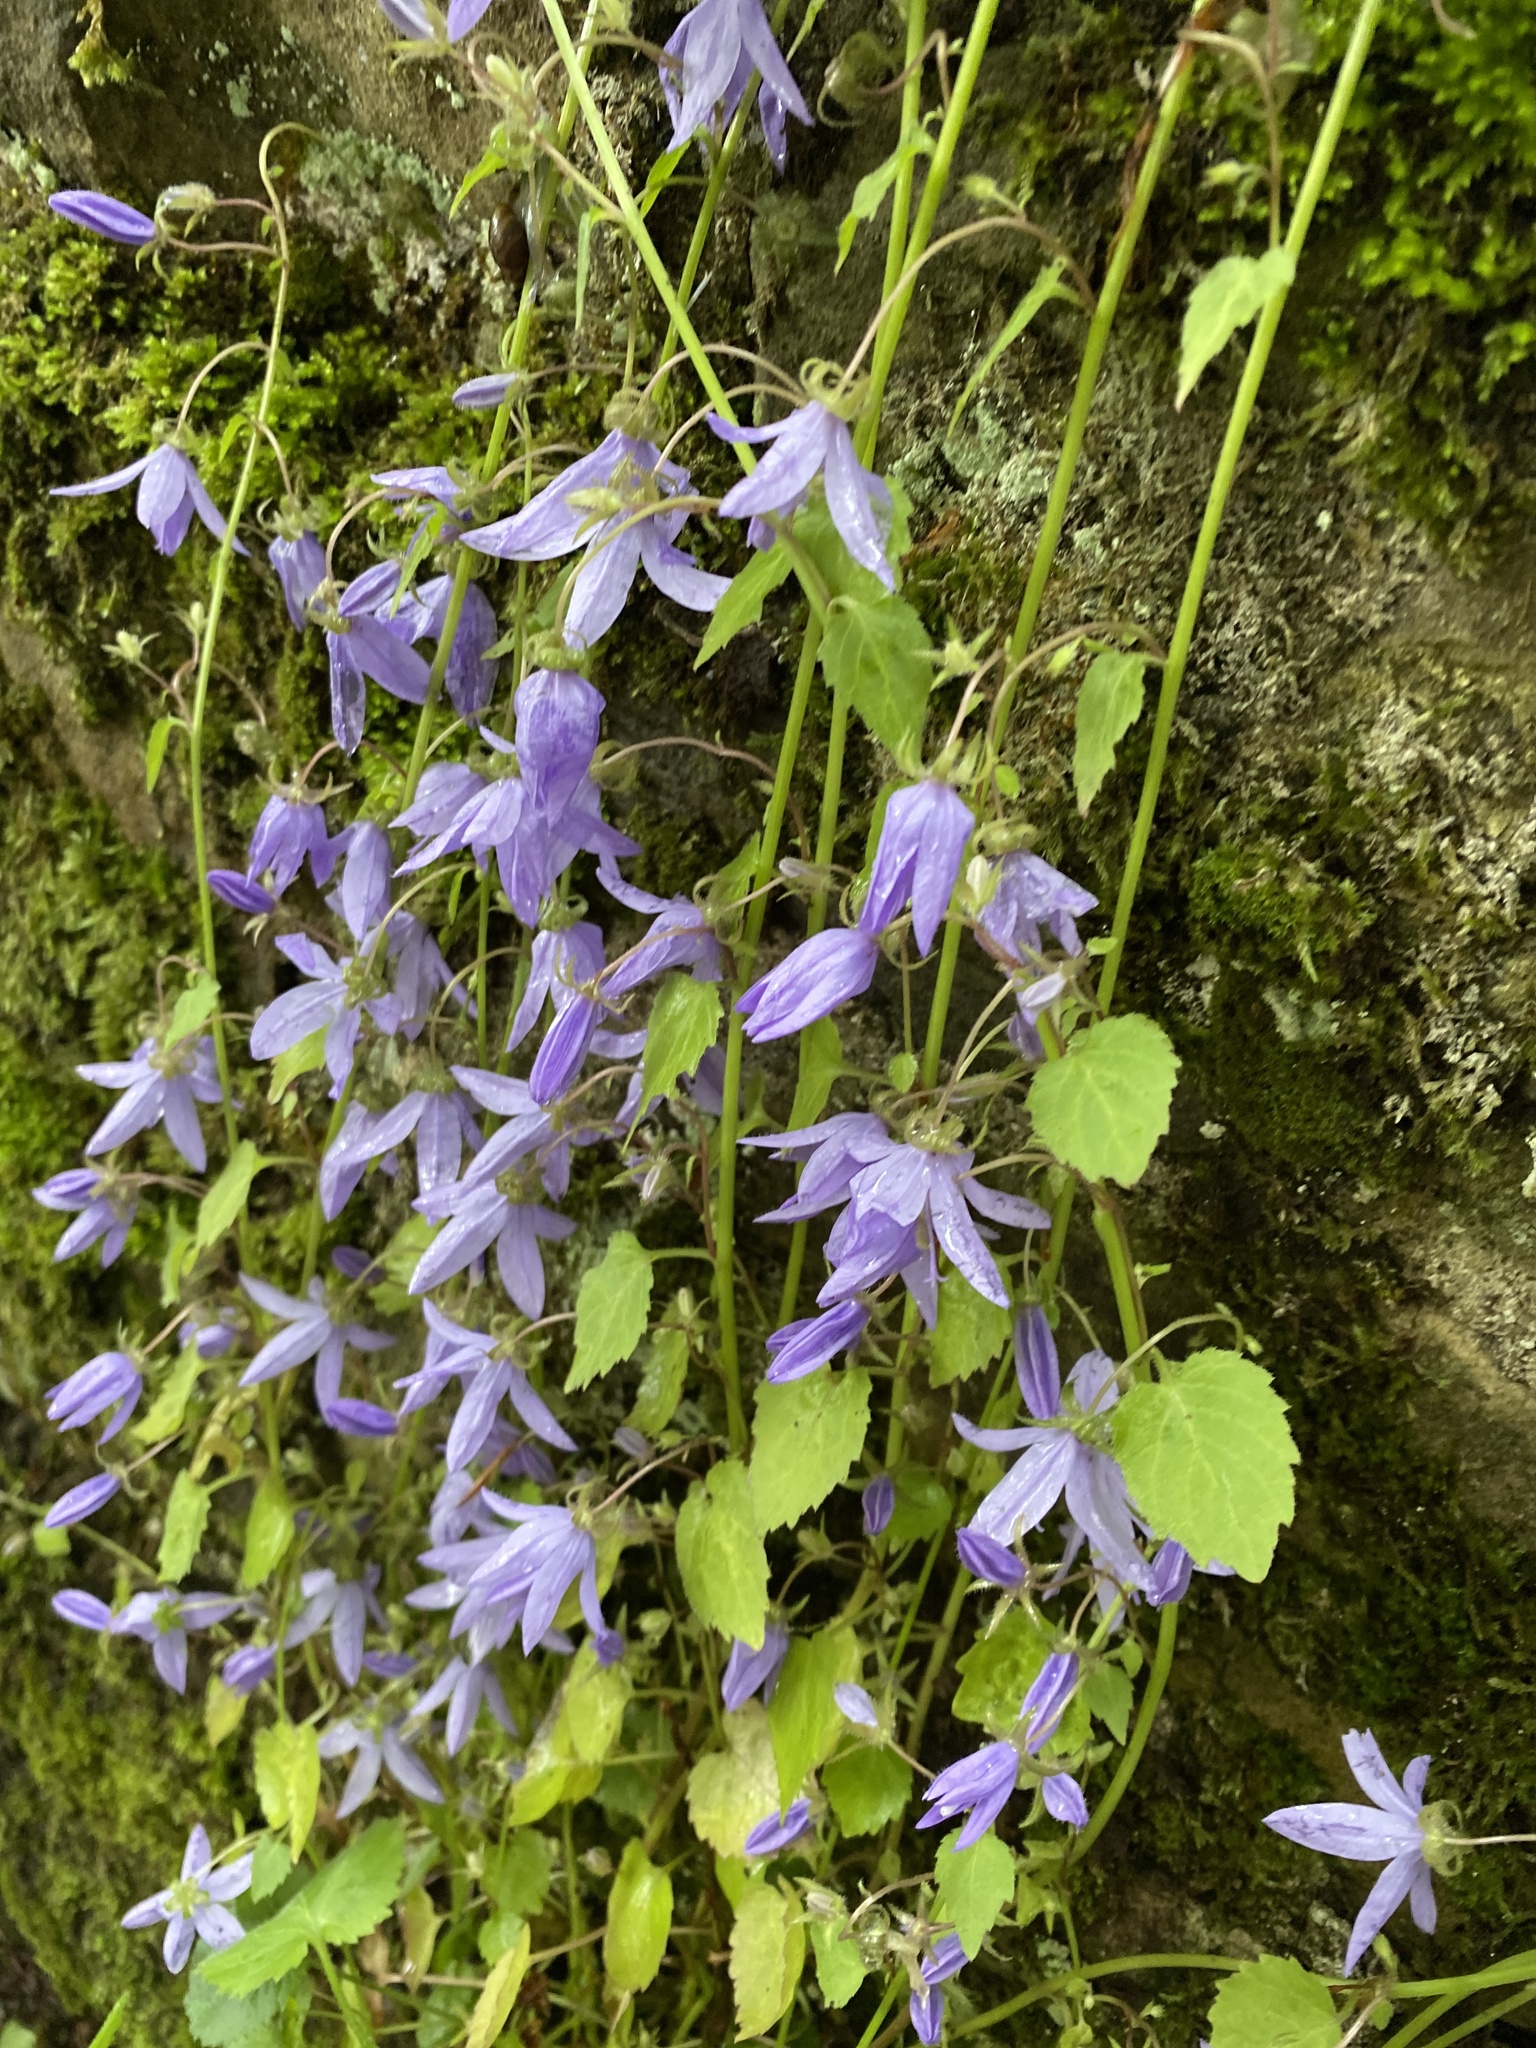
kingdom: Plantae
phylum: Tracheophyta
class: Magnoliopsida
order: Asterales
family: Campanulaceae
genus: Campanula
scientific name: Campanula poscharskyana
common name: Trailing bellflower
